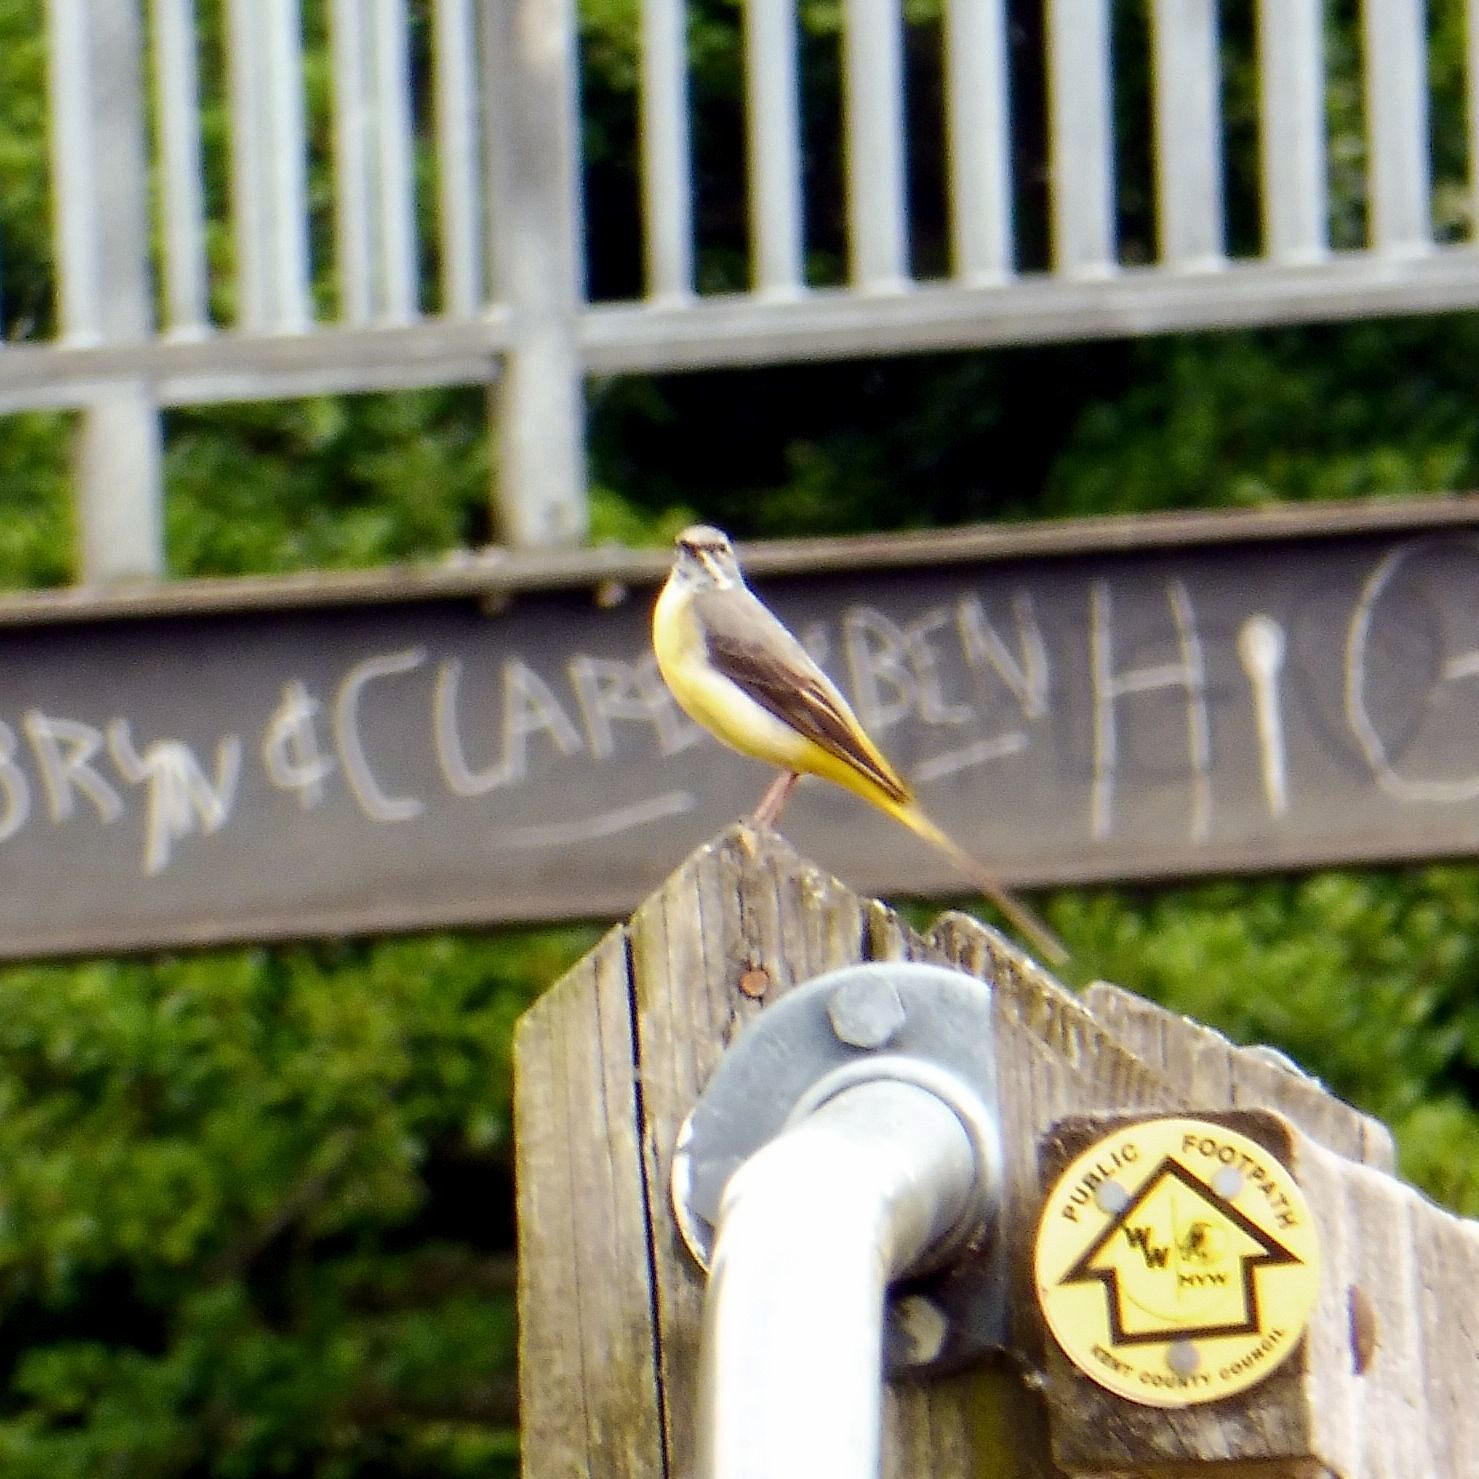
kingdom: Animalia
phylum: Chordata
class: Aves
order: Passeriformes
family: Motacillidae
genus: Motacilla
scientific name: Motacilla cinerea
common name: Grey wagtail
